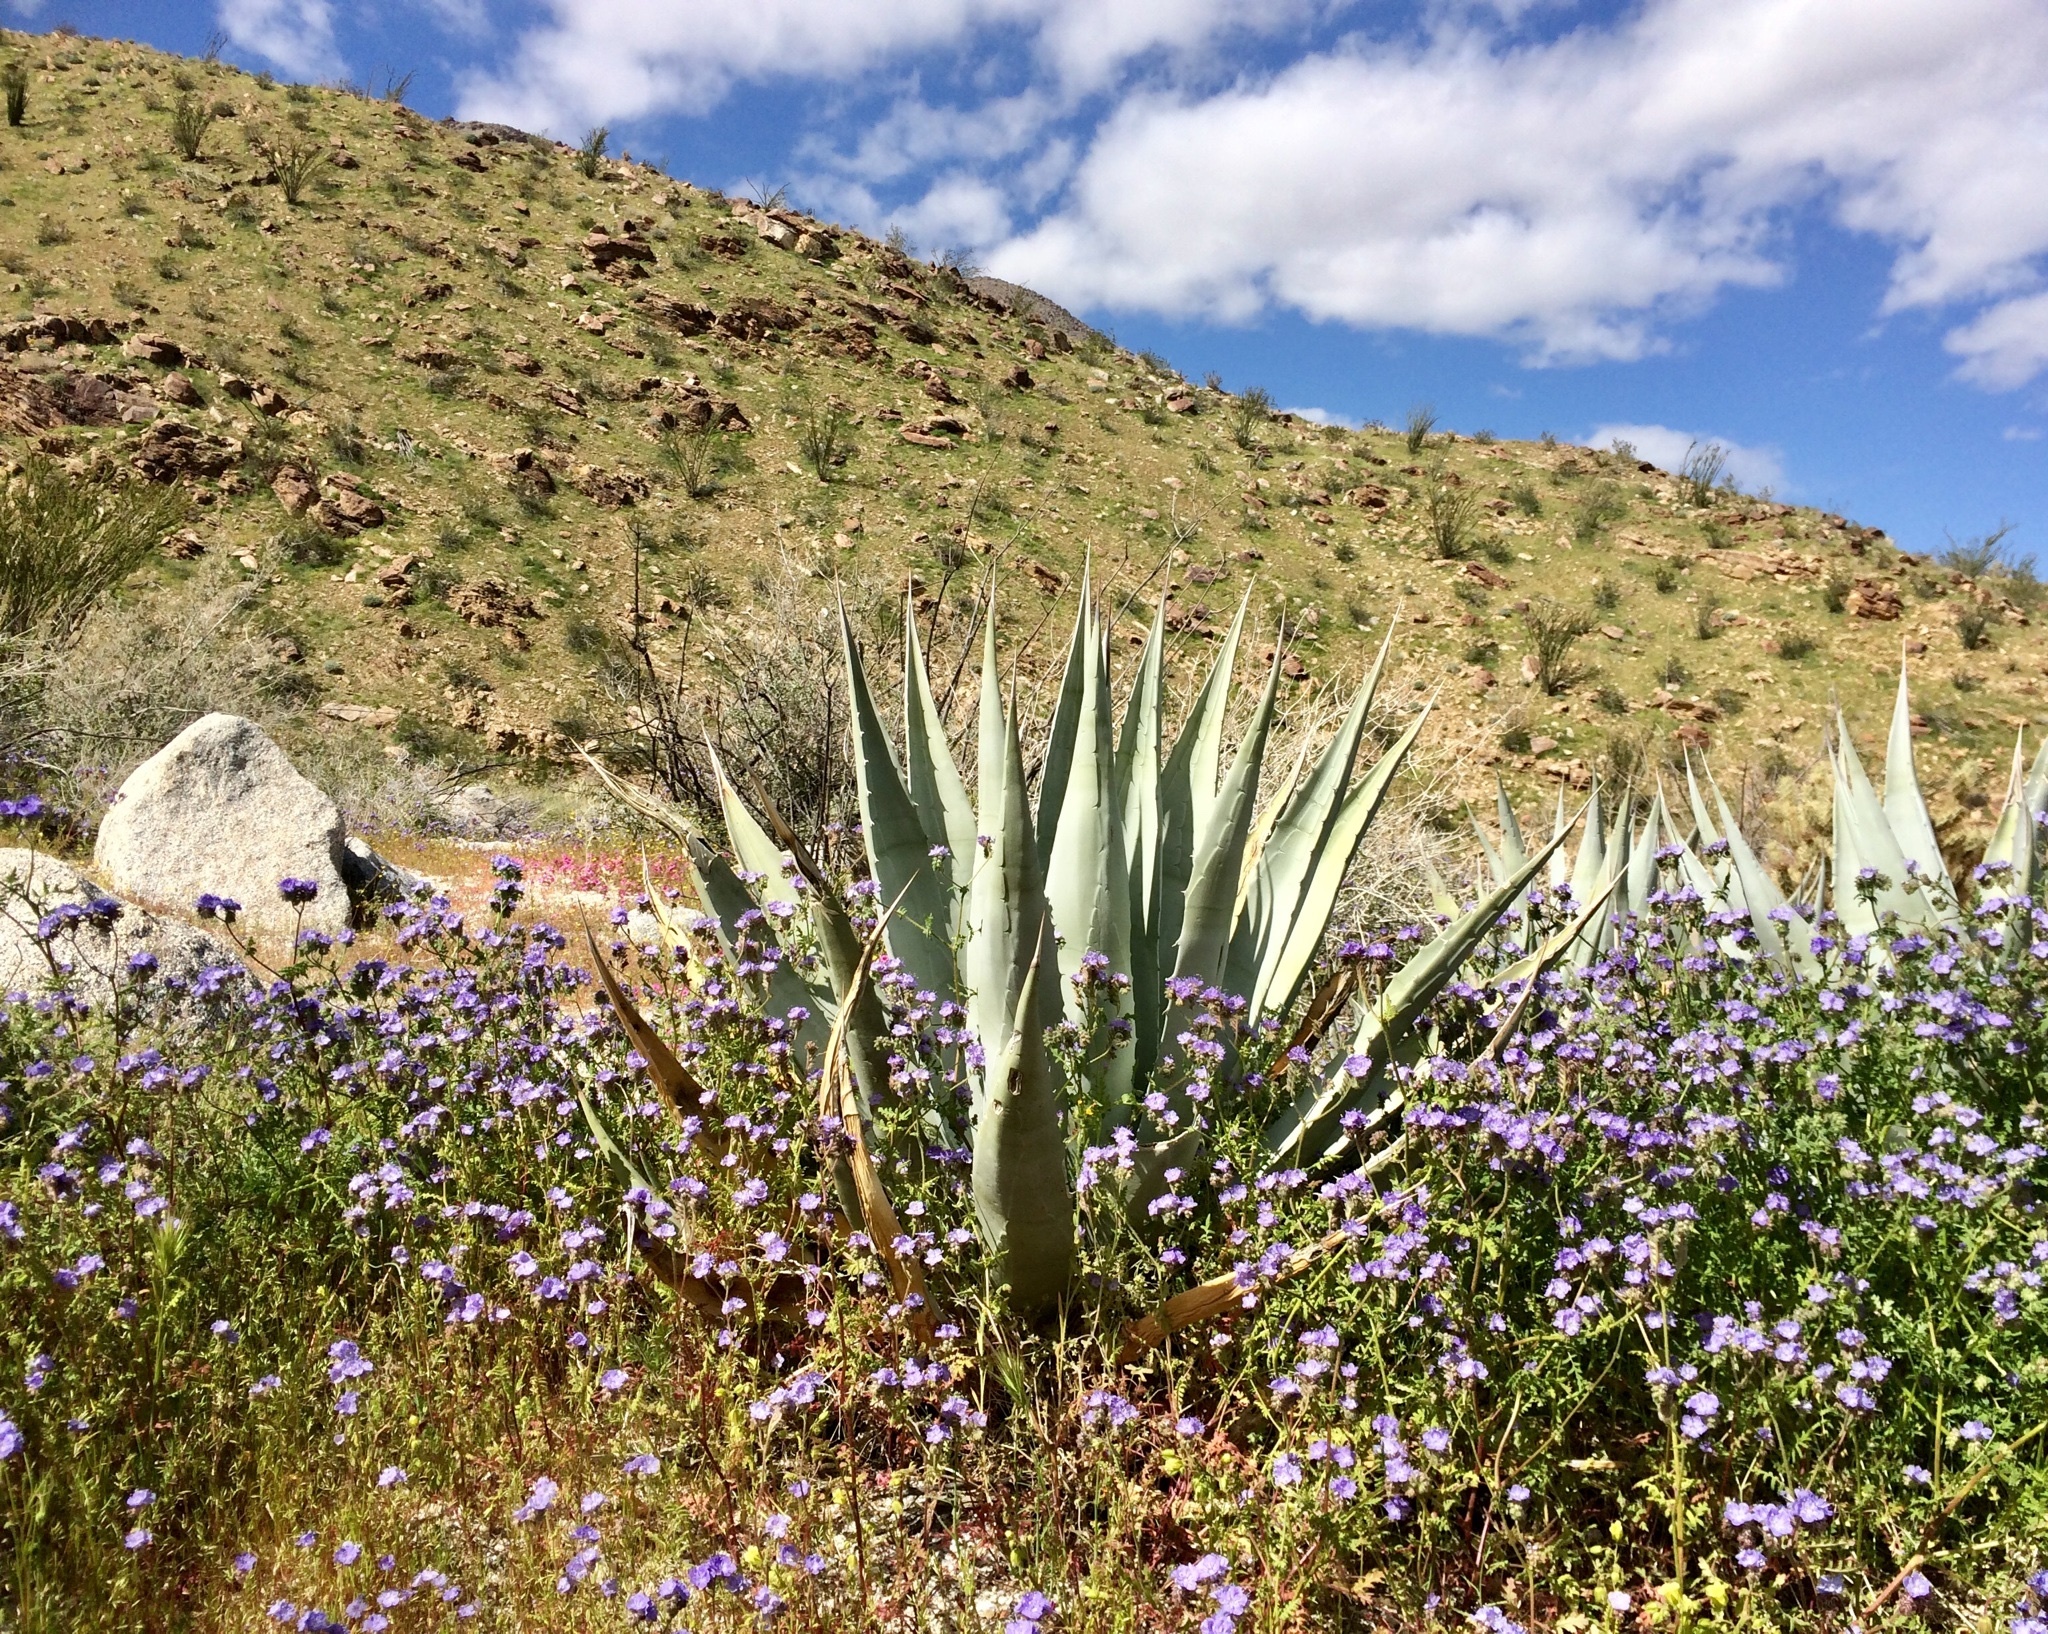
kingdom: Plantae
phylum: Tracheophyta
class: Liliopsida
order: Asparagales
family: Asparagaceae
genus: Agave
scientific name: Agave deserti
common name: Desert agave
